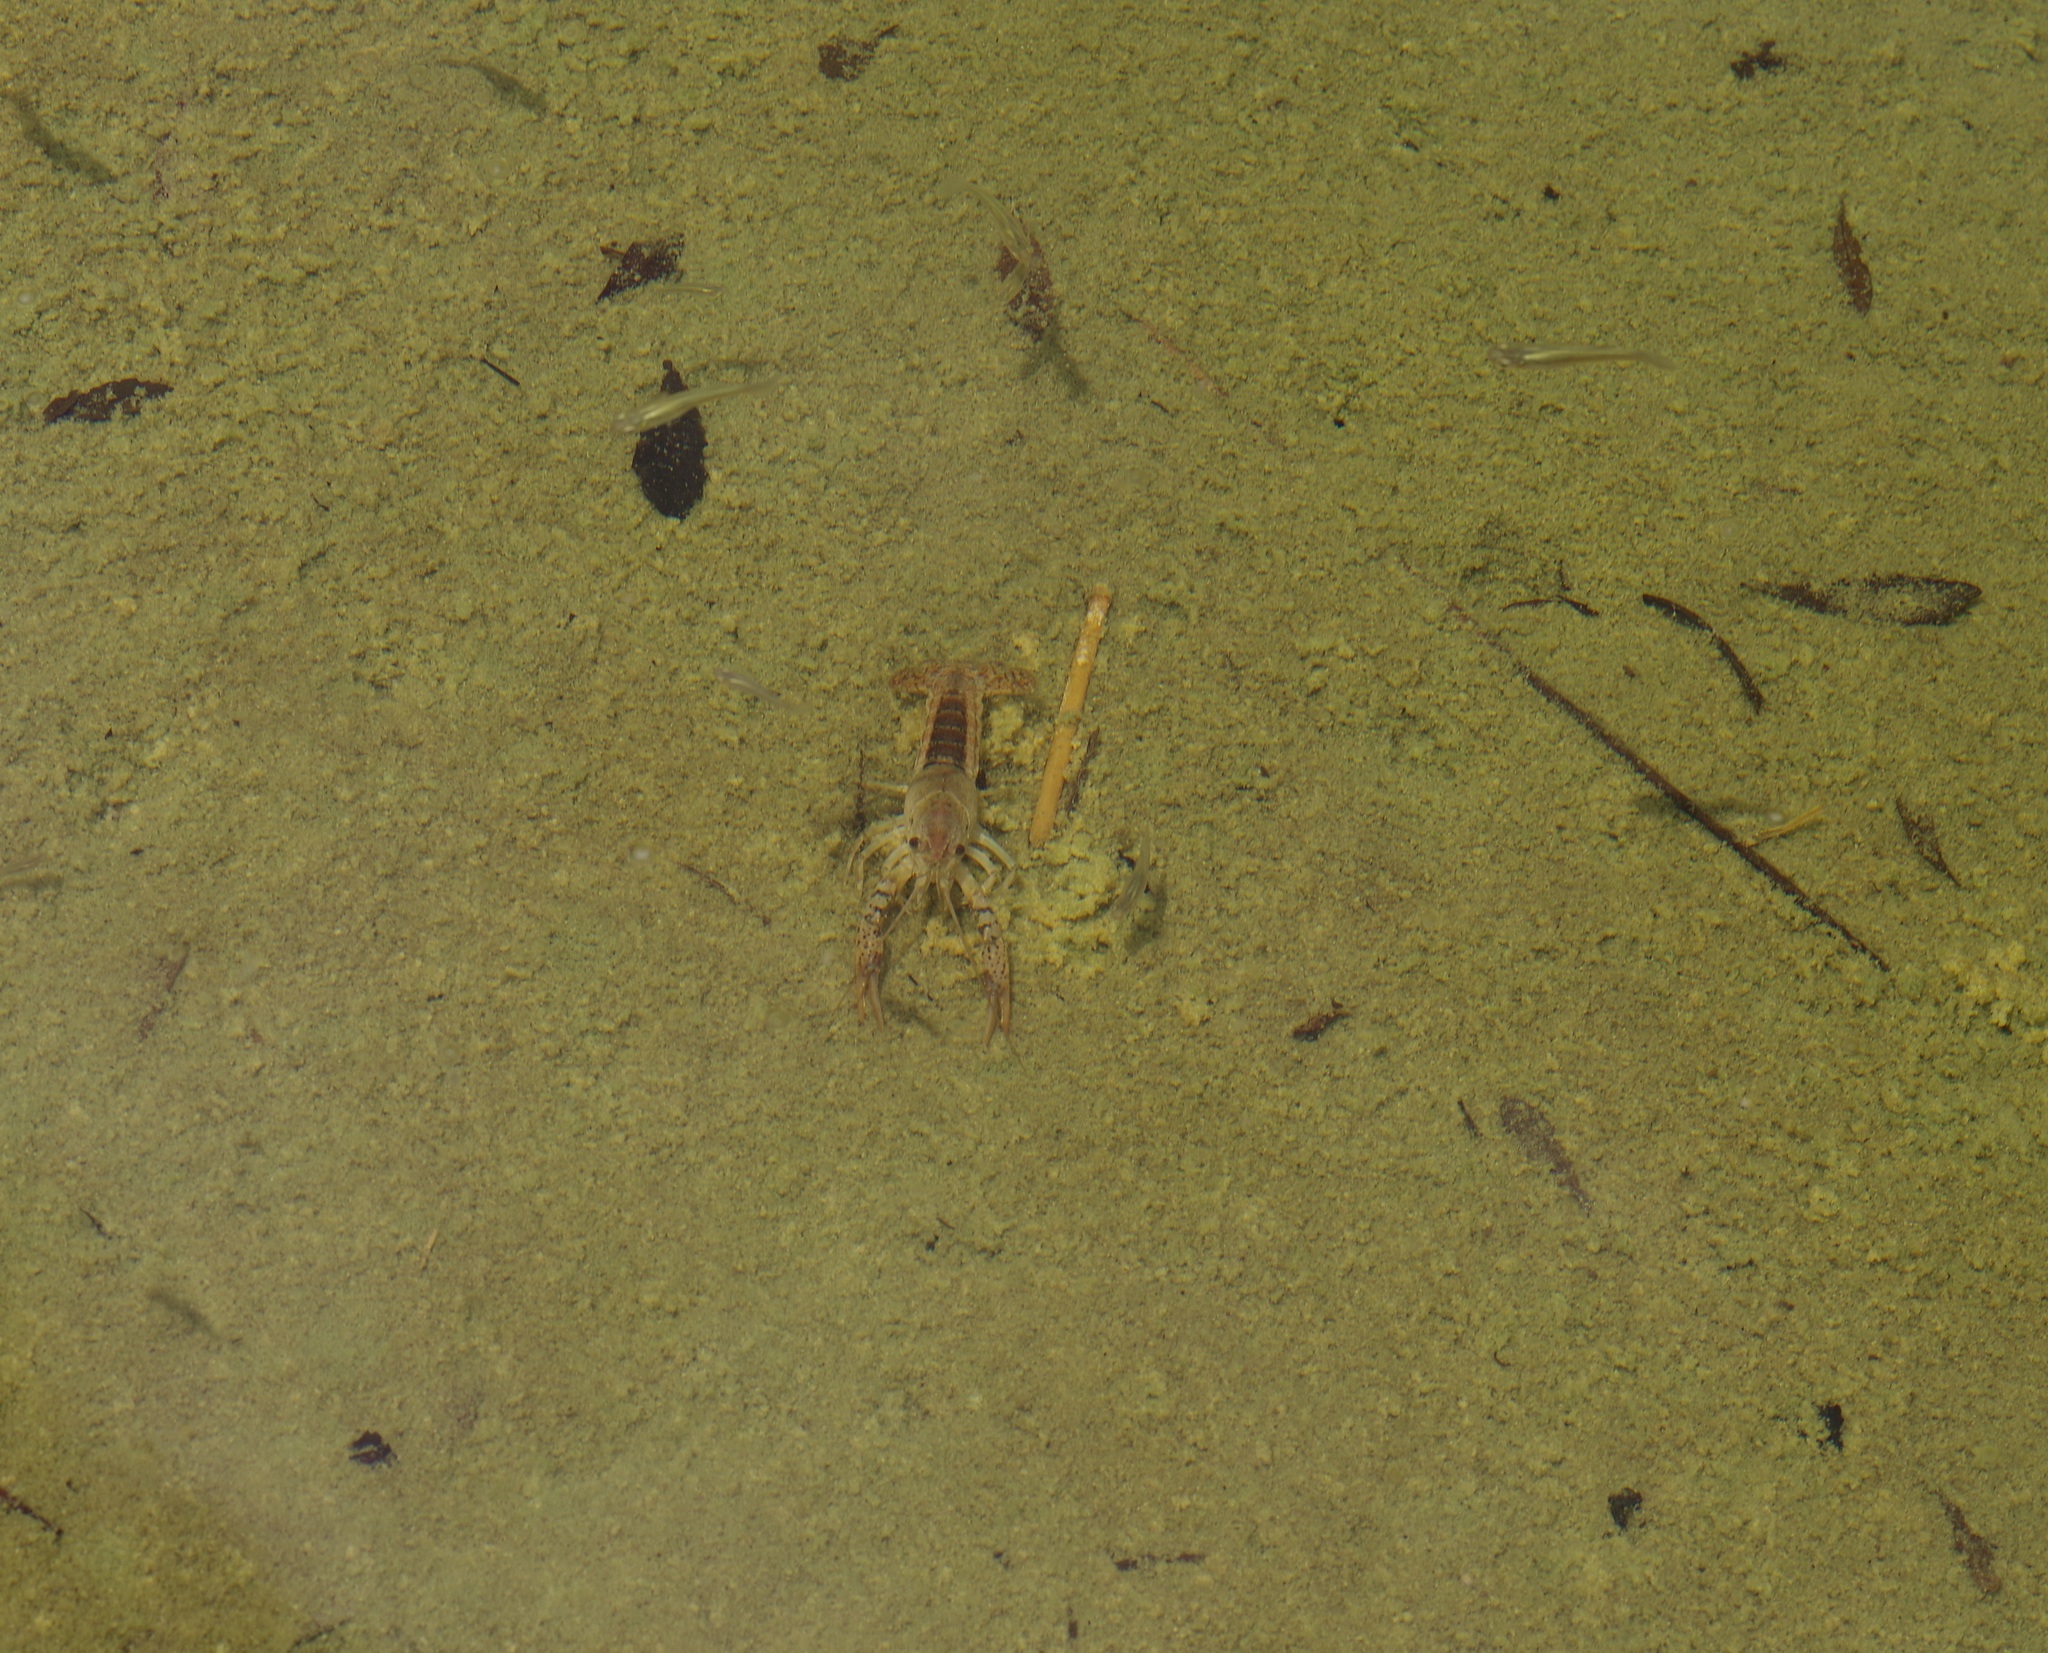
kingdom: Animalia
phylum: Arthropoda
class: Malacostraca
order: Decapoda
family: Cambaridae
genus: Procambarus
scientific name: Procambarus acutus
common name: White river crayfish
